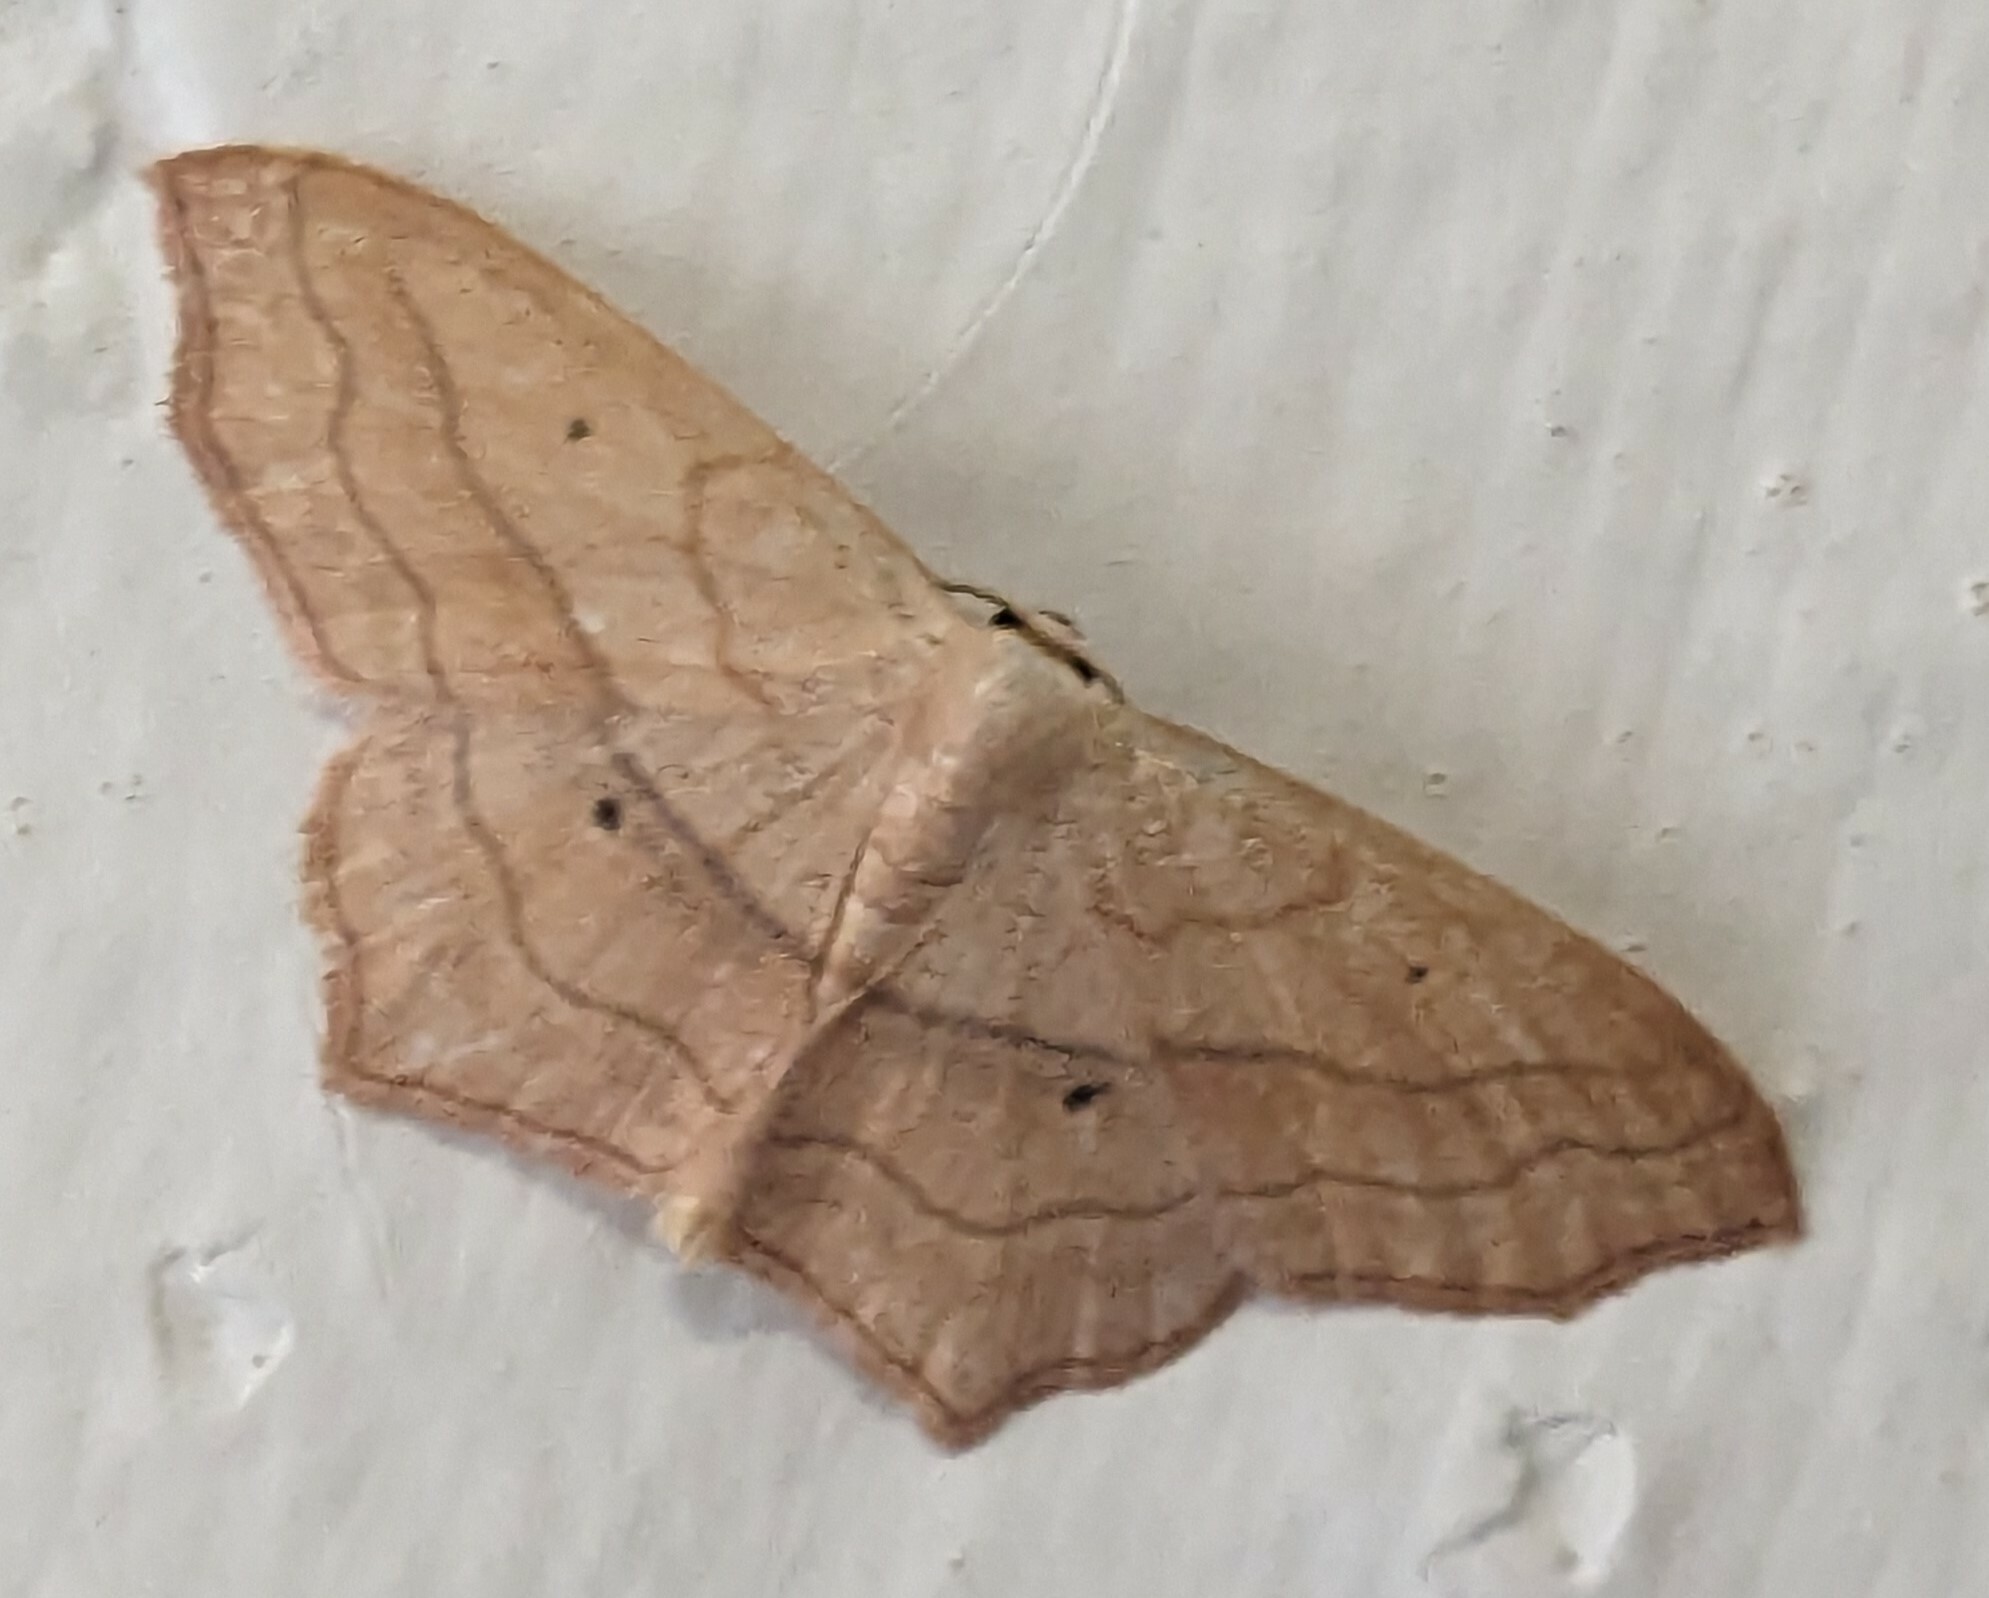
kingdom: Animalia
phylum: Arthropoda
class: Insecta
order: Lepidoptera
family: Geometridae
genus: Scopula
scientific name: Scopula imitaria
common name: Small blood-vein
